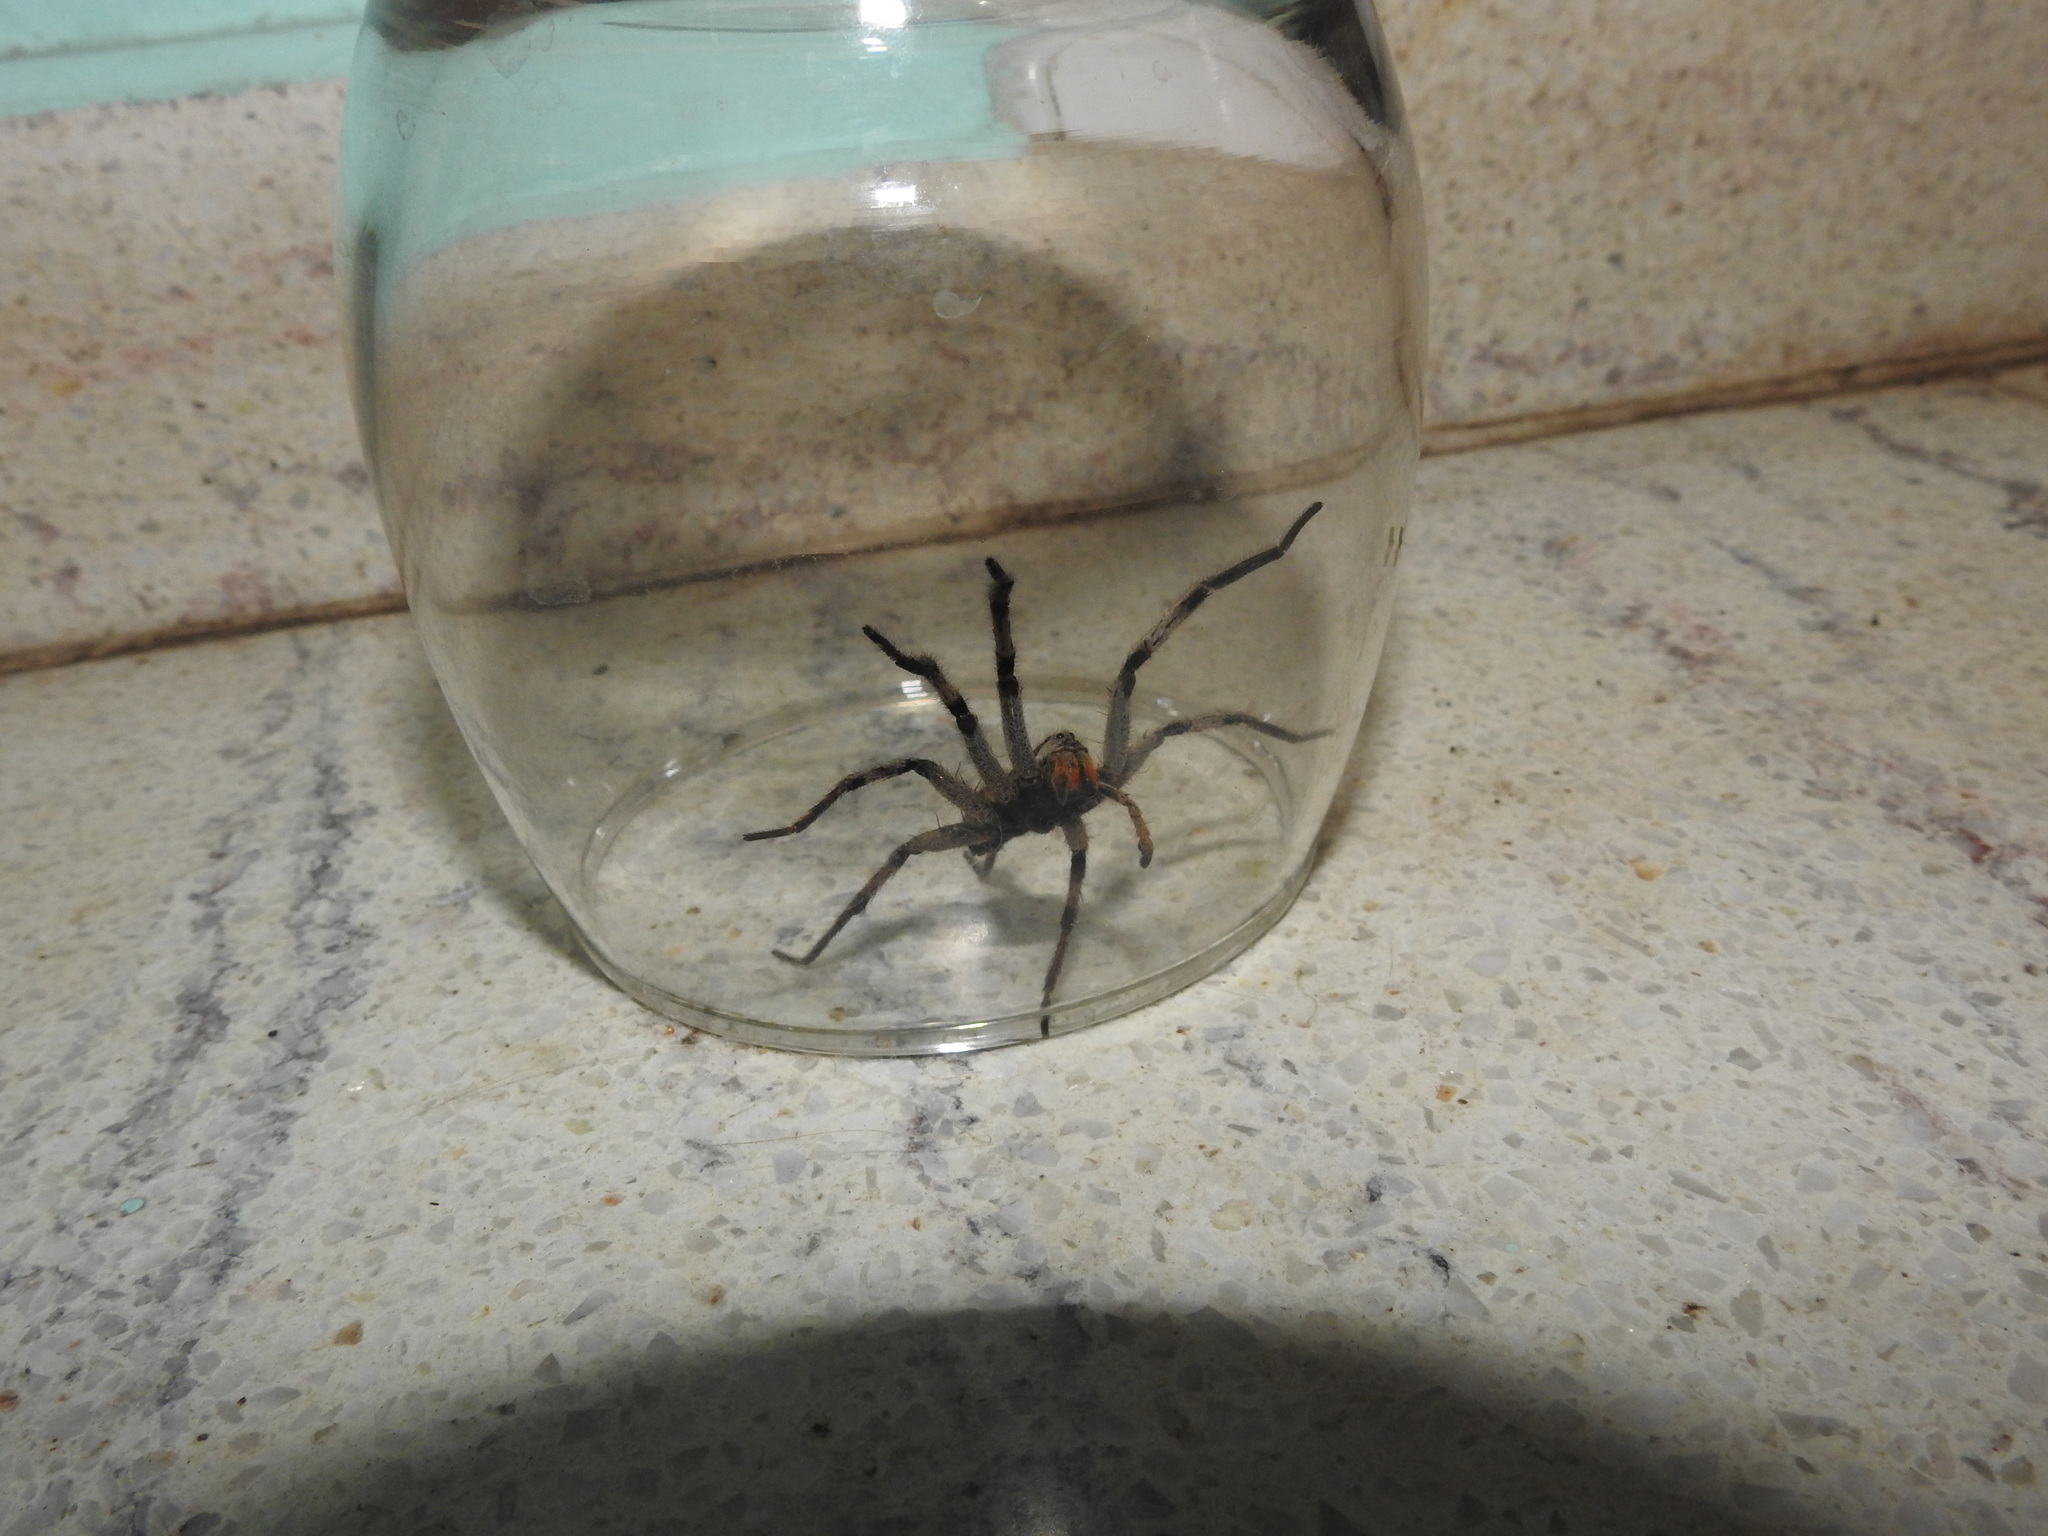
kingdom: Animalia
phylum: Arthropoda
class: Arachnida
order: Araneae
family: Lycosidae
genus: Lycosa
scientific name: Lycosa erythrognatha
